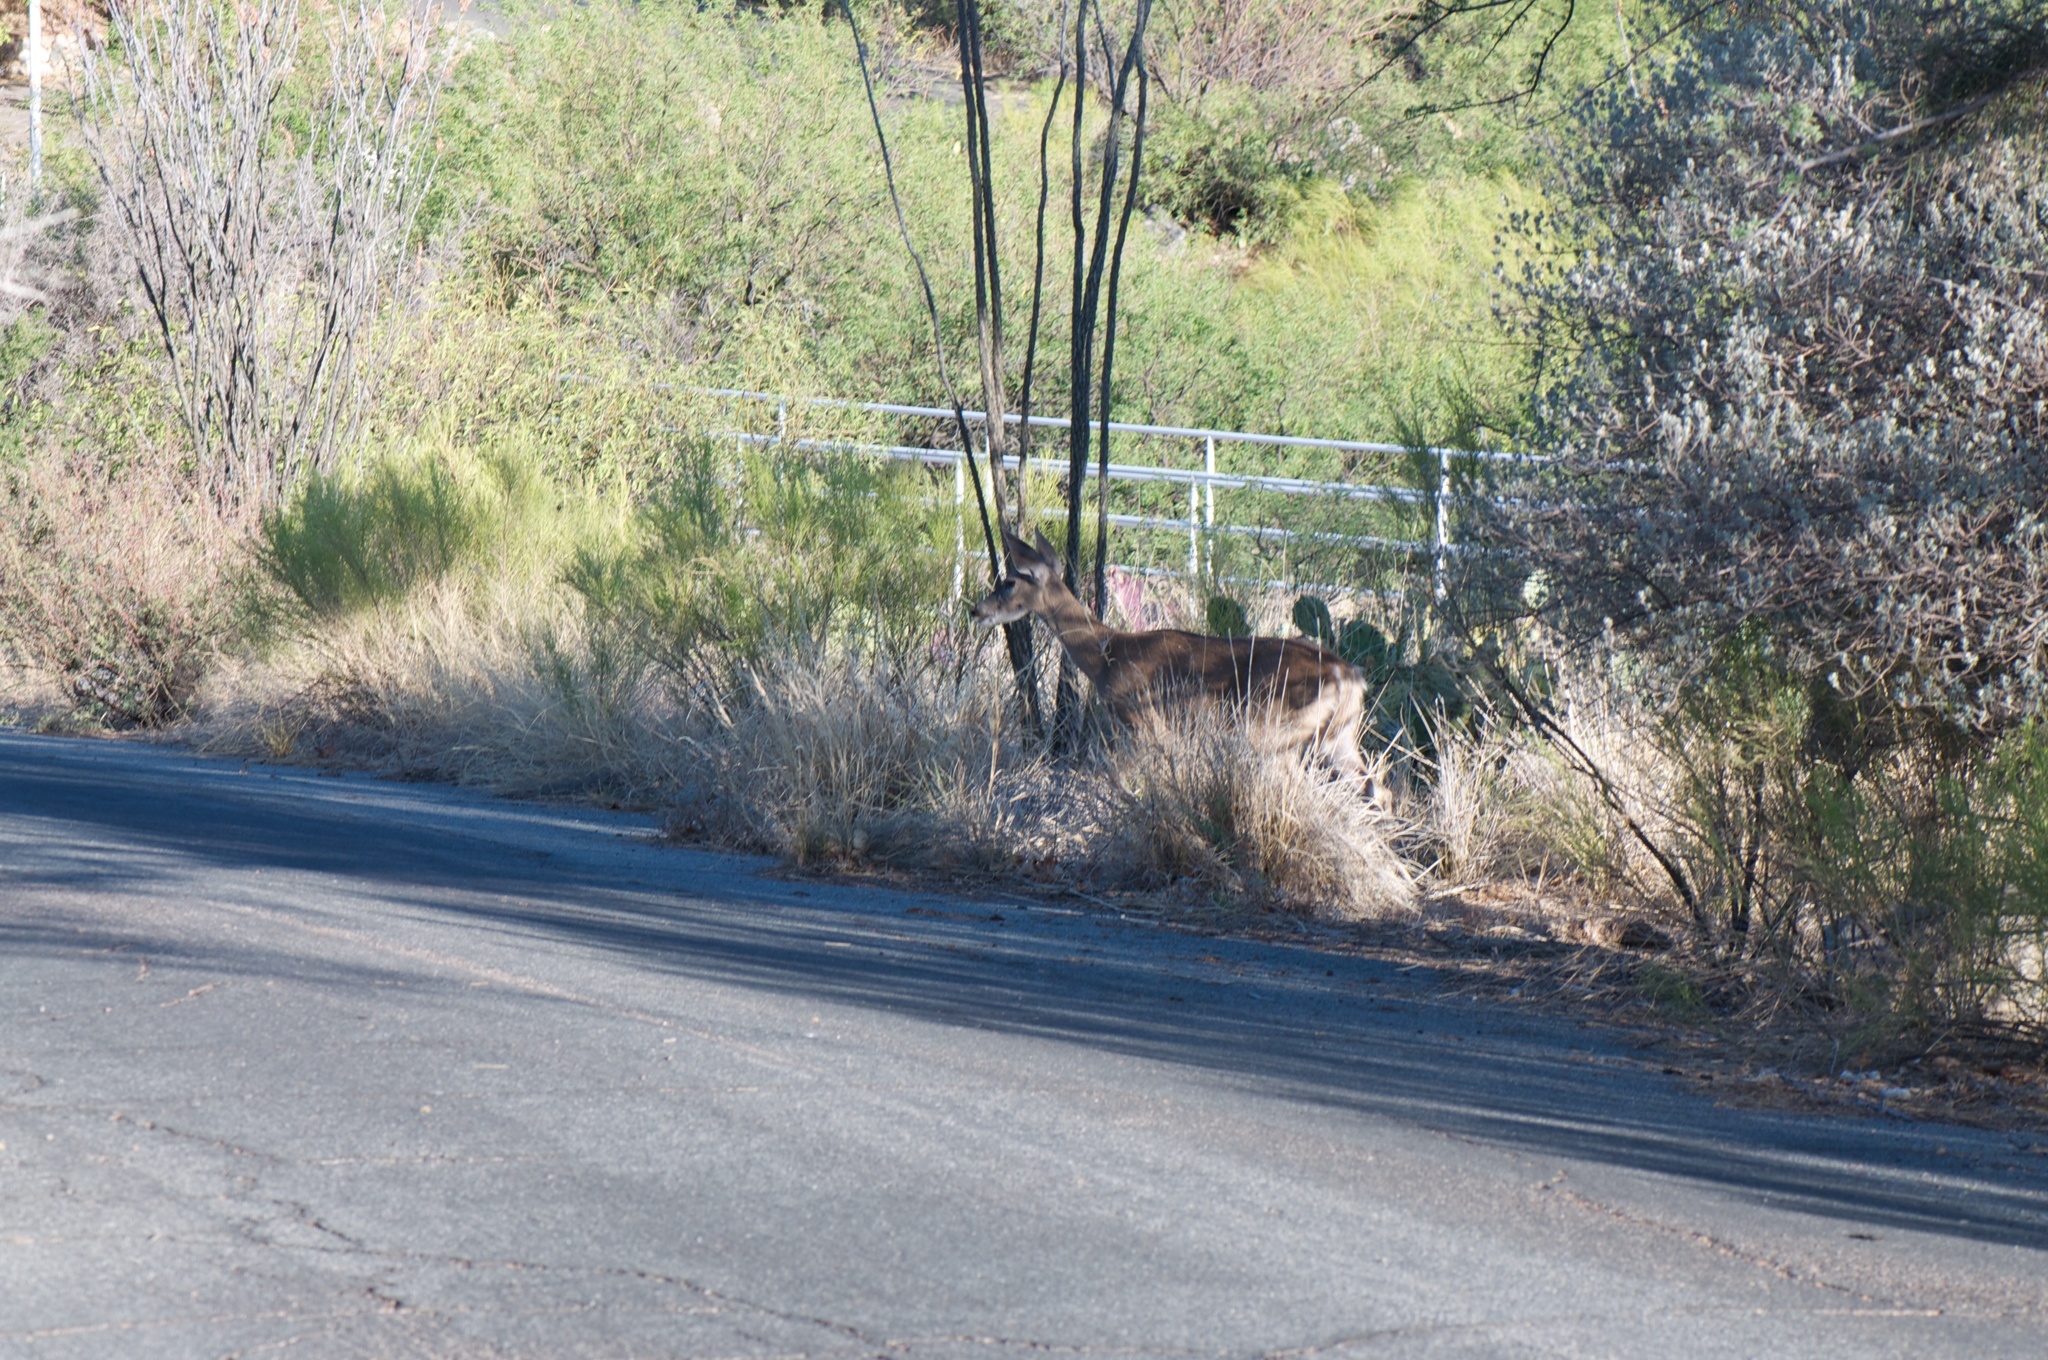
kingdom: Animalia
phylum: Chordata
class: Mammalia
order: Artiodactyla
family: Cervidae
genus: Odocoileus
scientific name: Odocoileus virginianus
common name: White-tailed deer
